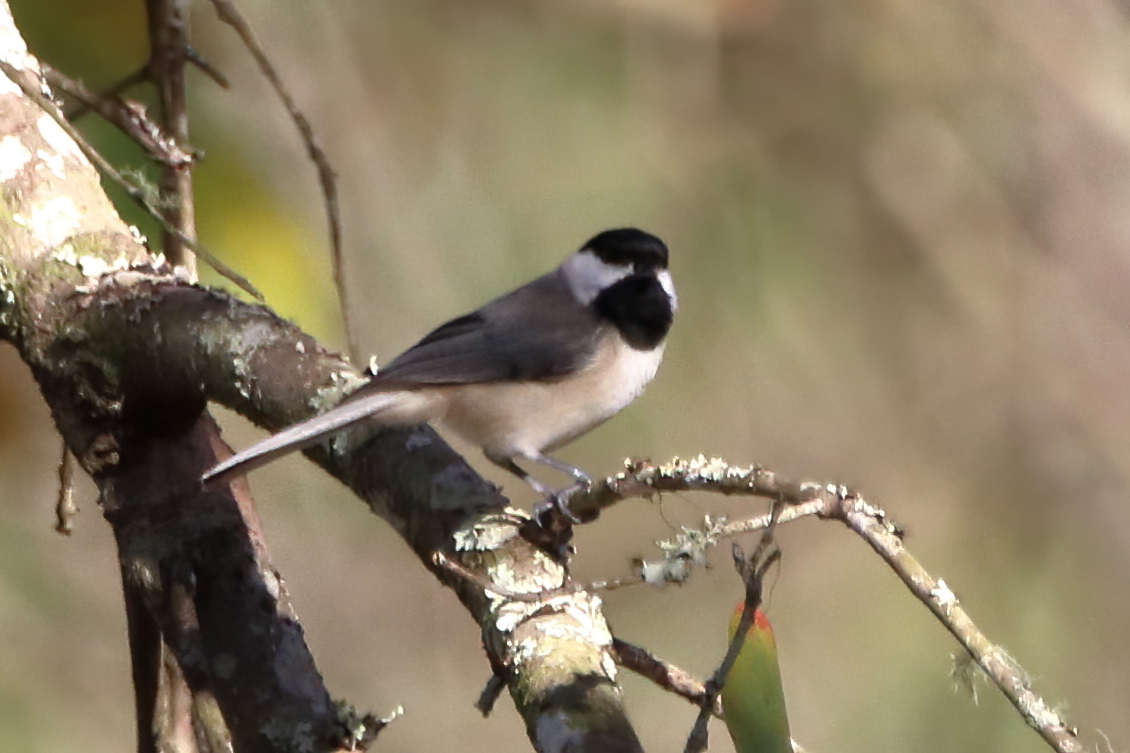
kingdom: Animalia
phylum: Chordata
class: Aves
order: Passeriformes
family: Paridae
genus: Poecile
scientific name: Poecile carolinensis
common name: Carolina chickadee
